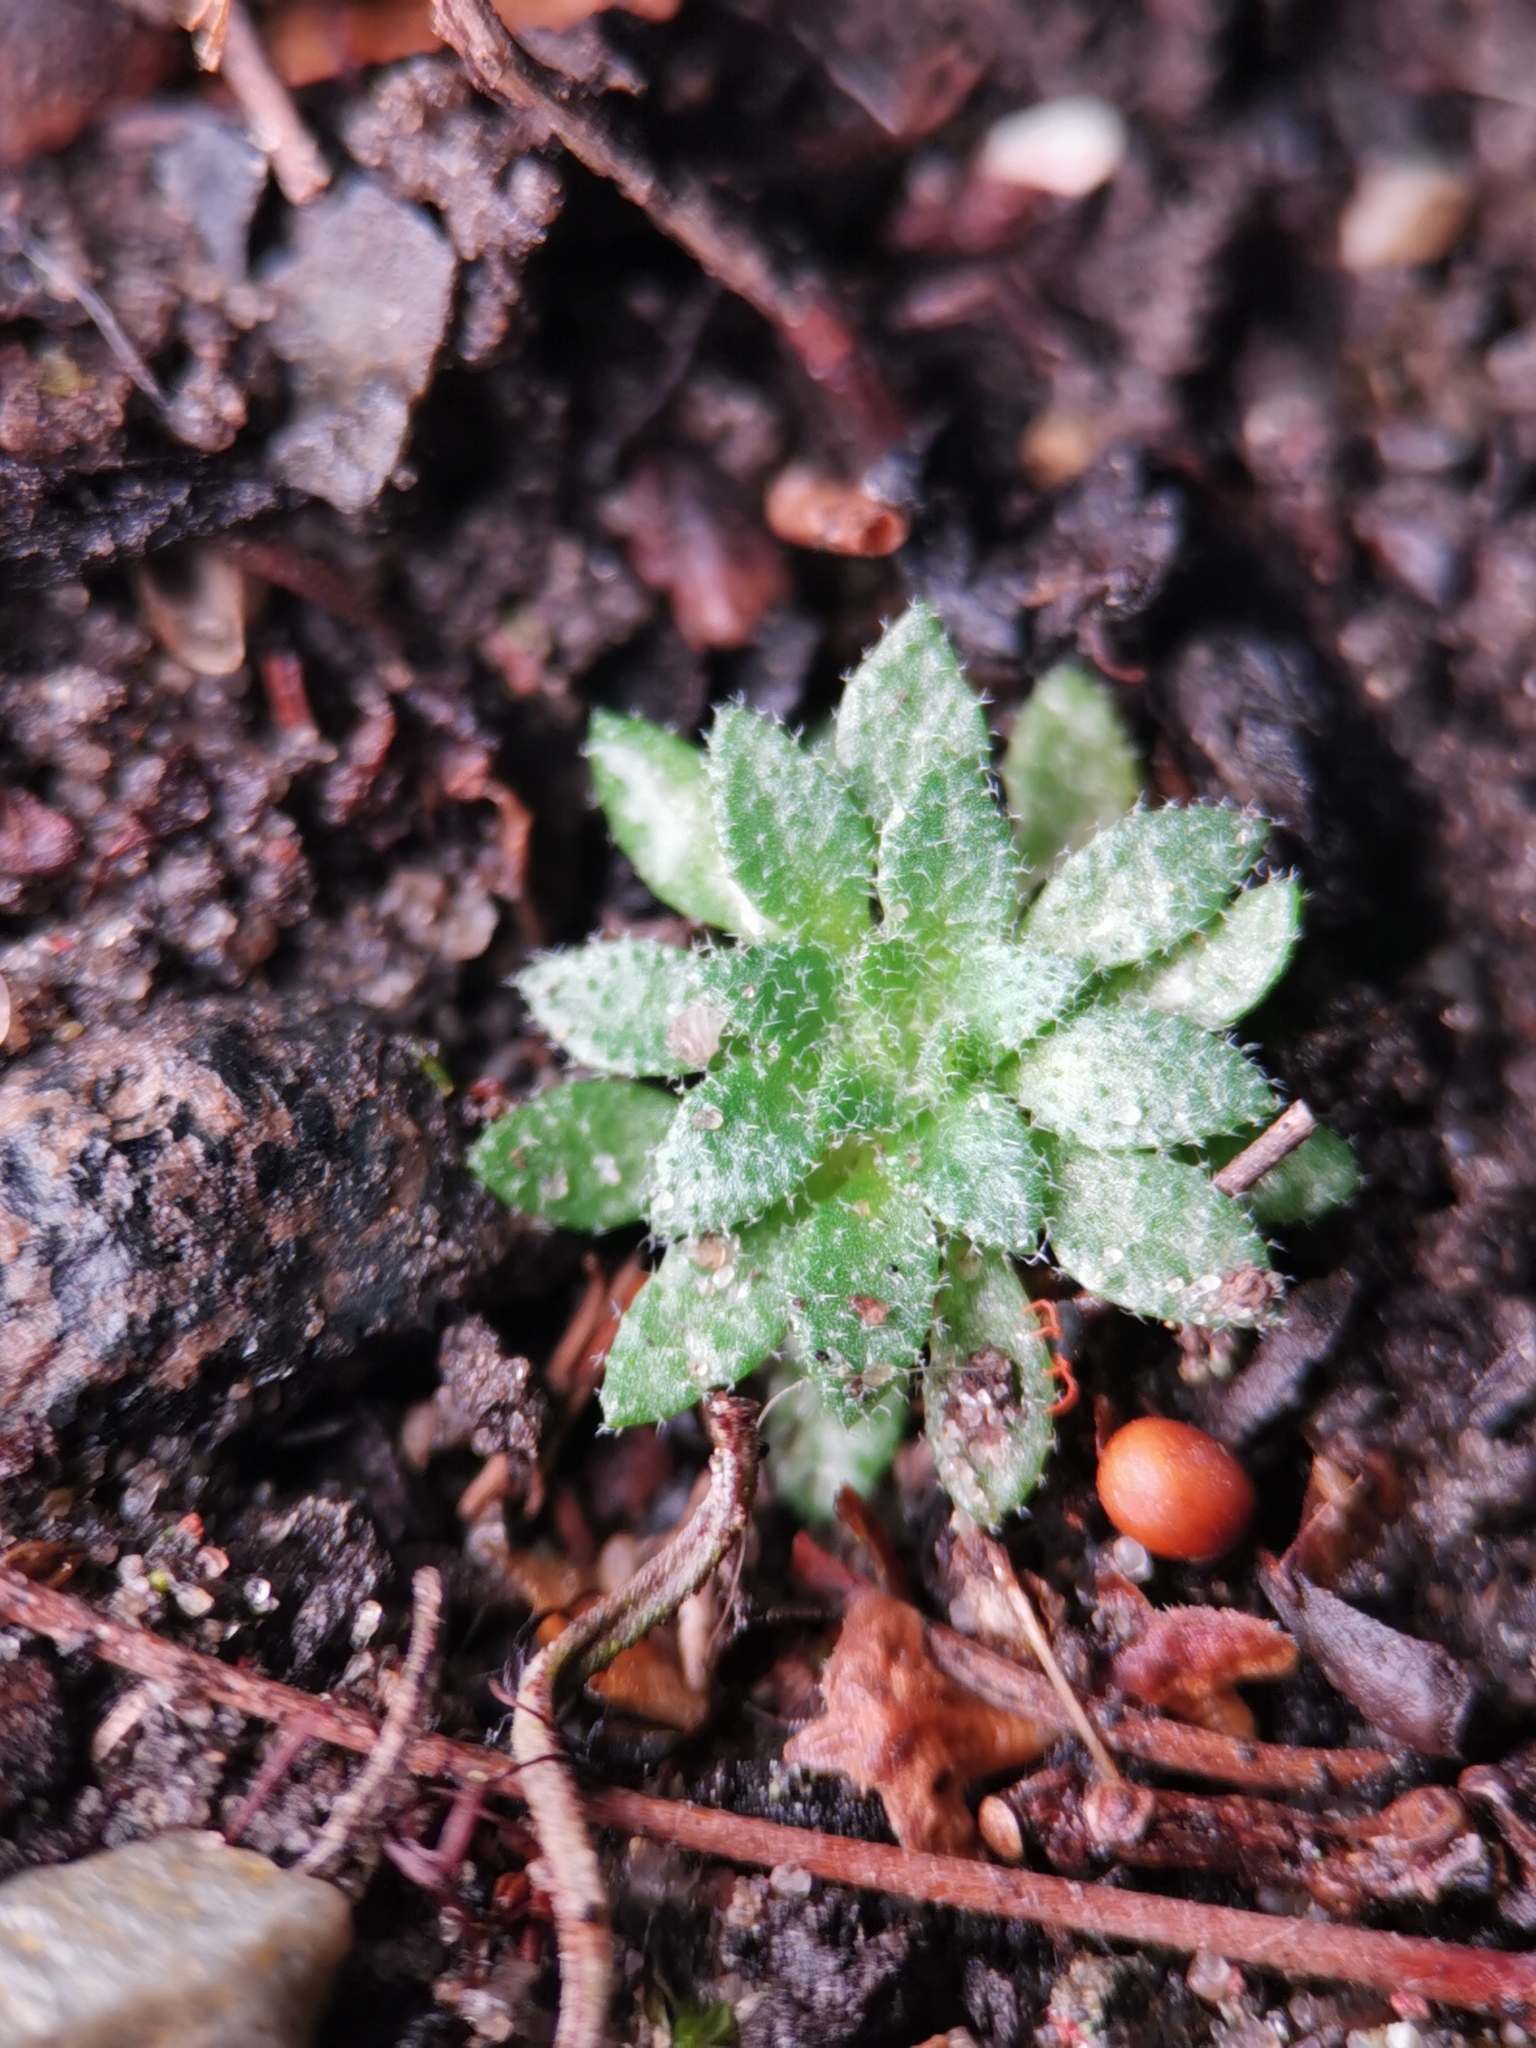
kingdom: Plantae
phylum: Tracheophyta
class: Magnoliopsida
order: Brassicales
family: Brassicaceae
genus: Draba
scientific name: Draba verna
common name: Spring draba
